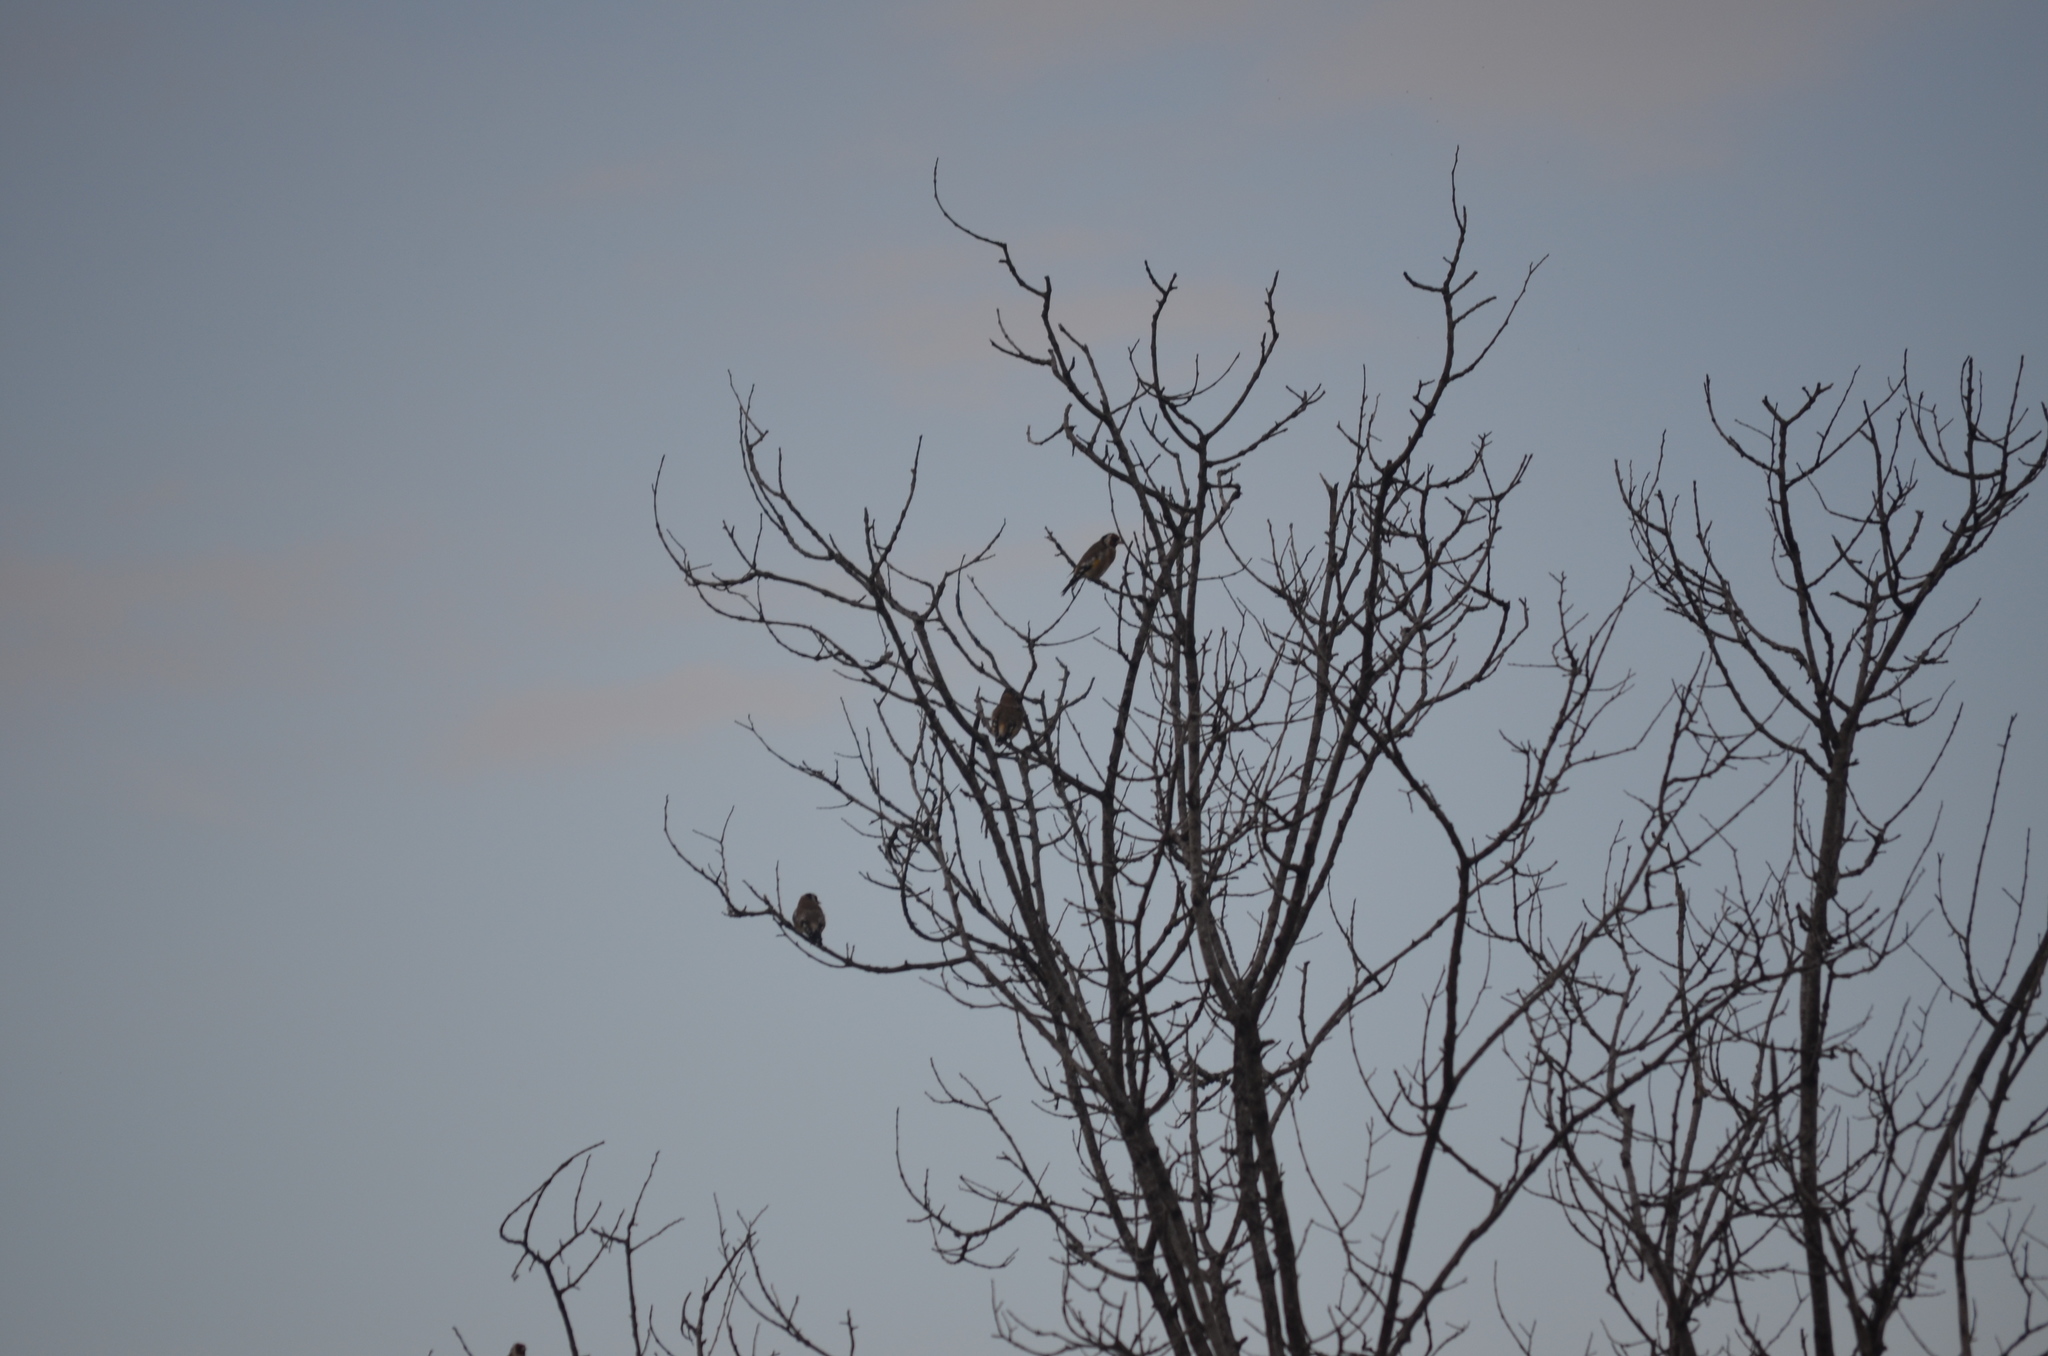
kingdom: Animalia
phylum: Chordata
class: Aves
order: Passeriformes
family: Fringillidae
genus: Carduelis
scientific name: Carduelis carduelis
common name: European goldfinch
